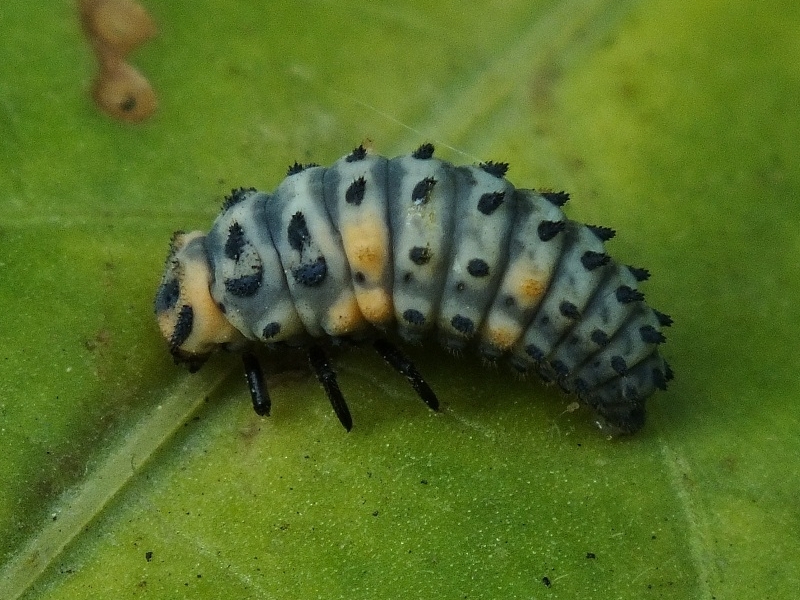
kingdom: Animalia
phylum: Arthropoda
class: Insecta
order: Coleoptera
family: Coccinellidae
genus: Coccinella
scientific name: Coccinella magnifica
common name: Scarce 7-spot ladybird
